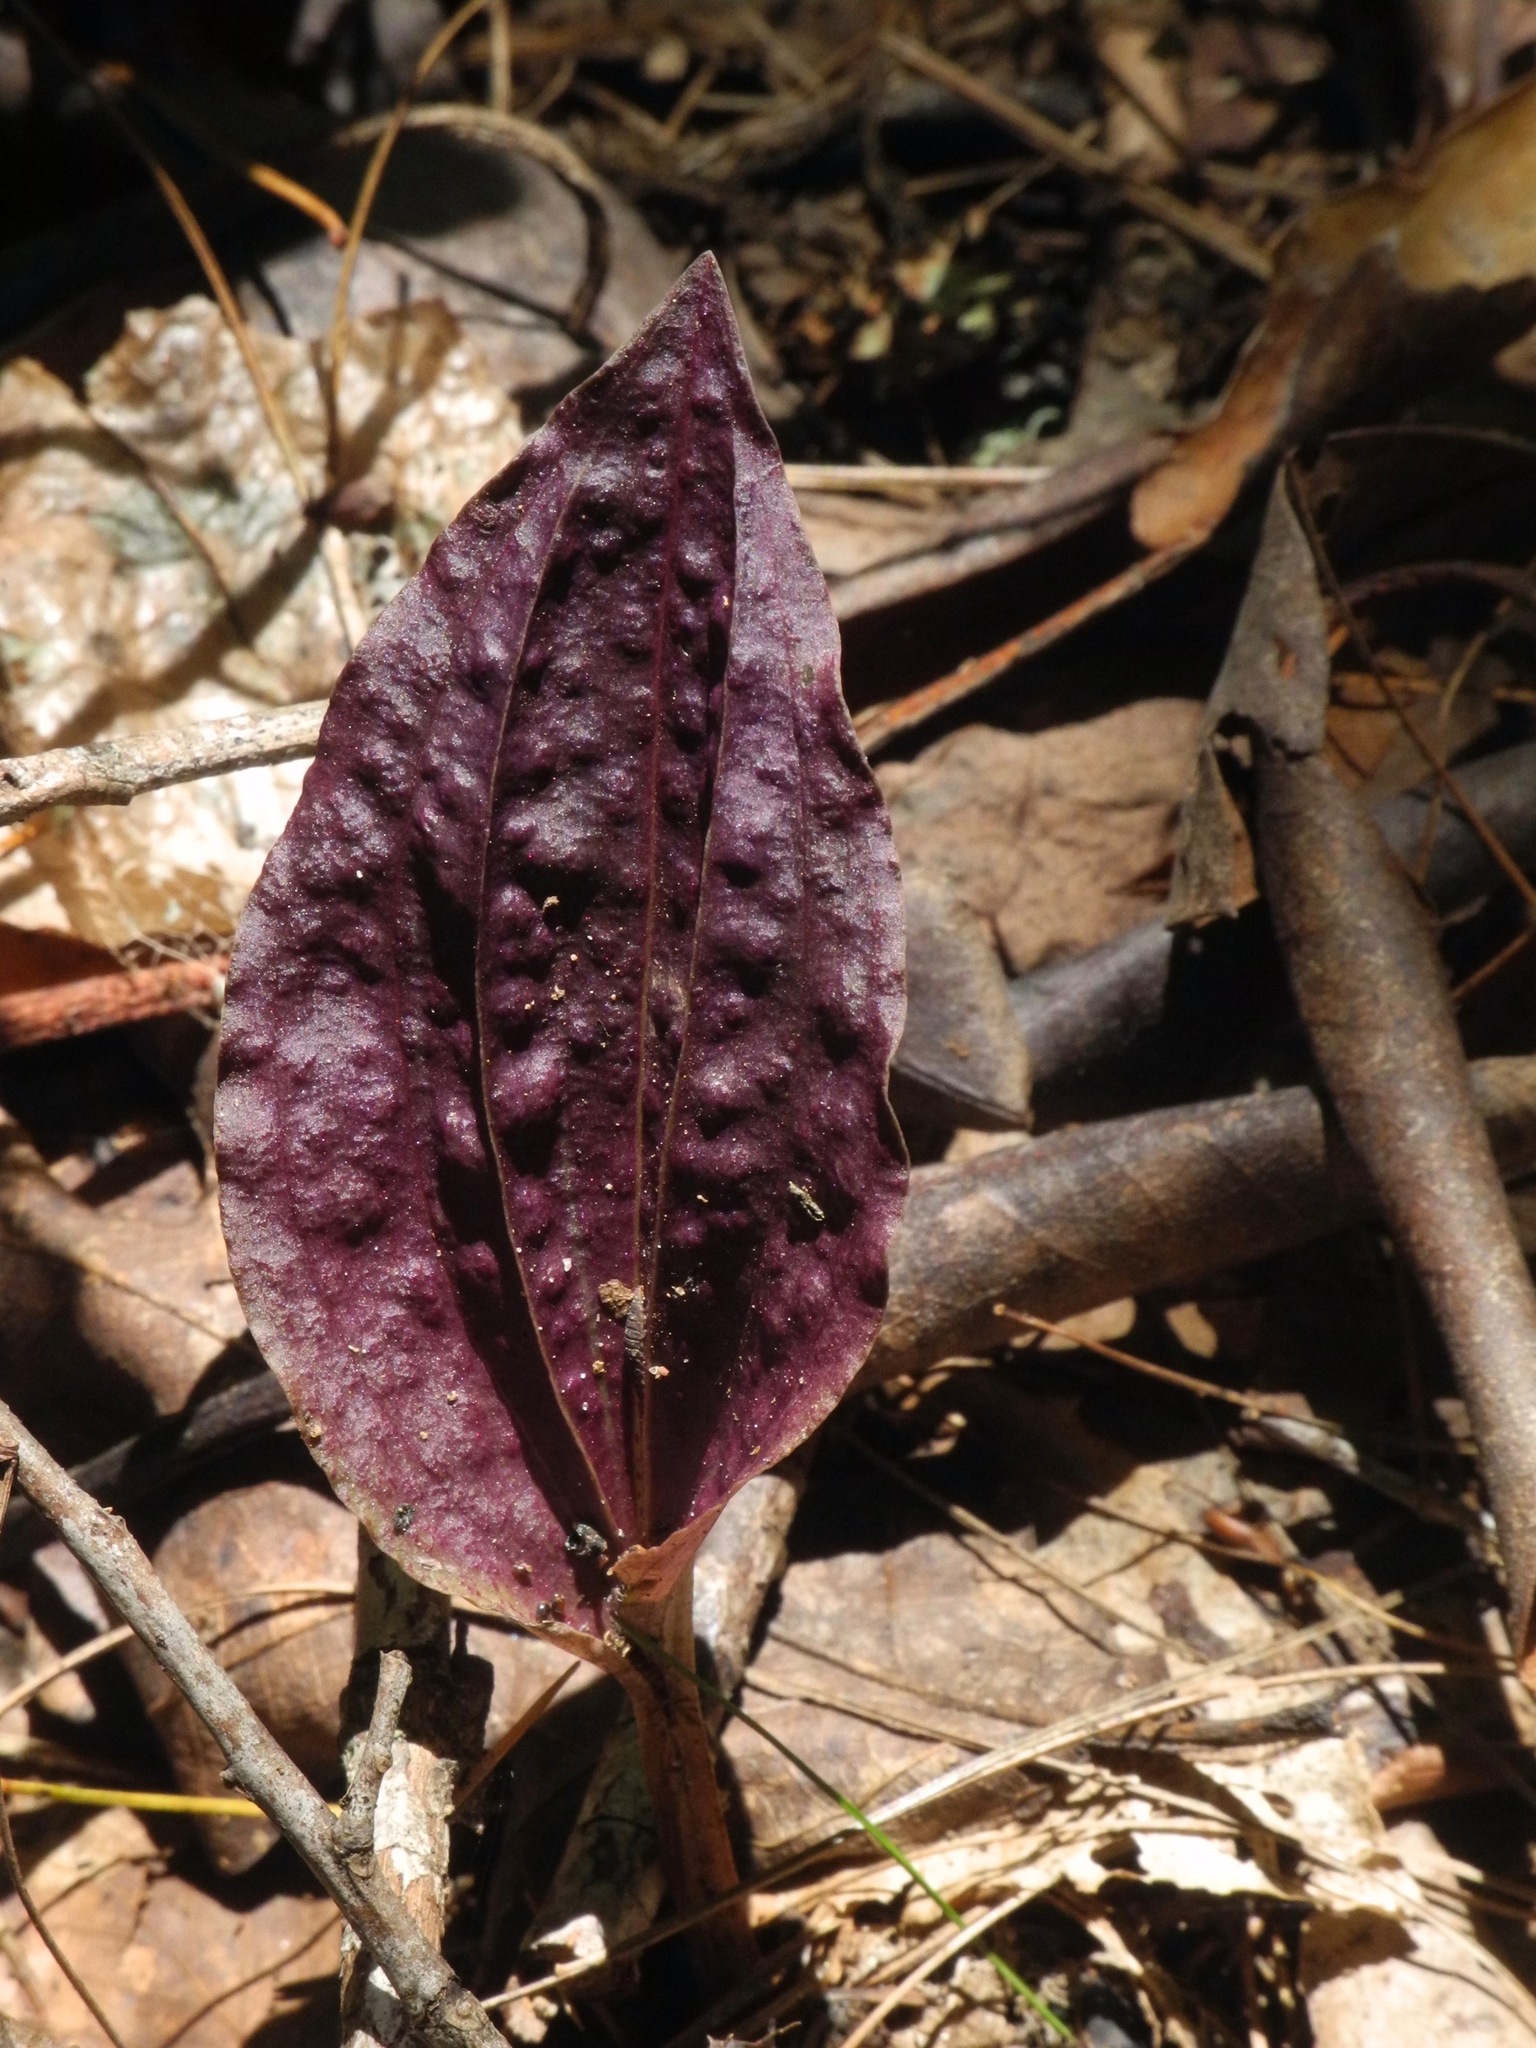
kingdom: Plantae
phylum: Tracheophyta
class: Liliopsida
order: Asparagales
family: Orchidaceae
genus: Tipularia
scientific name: Tipularia discolor
